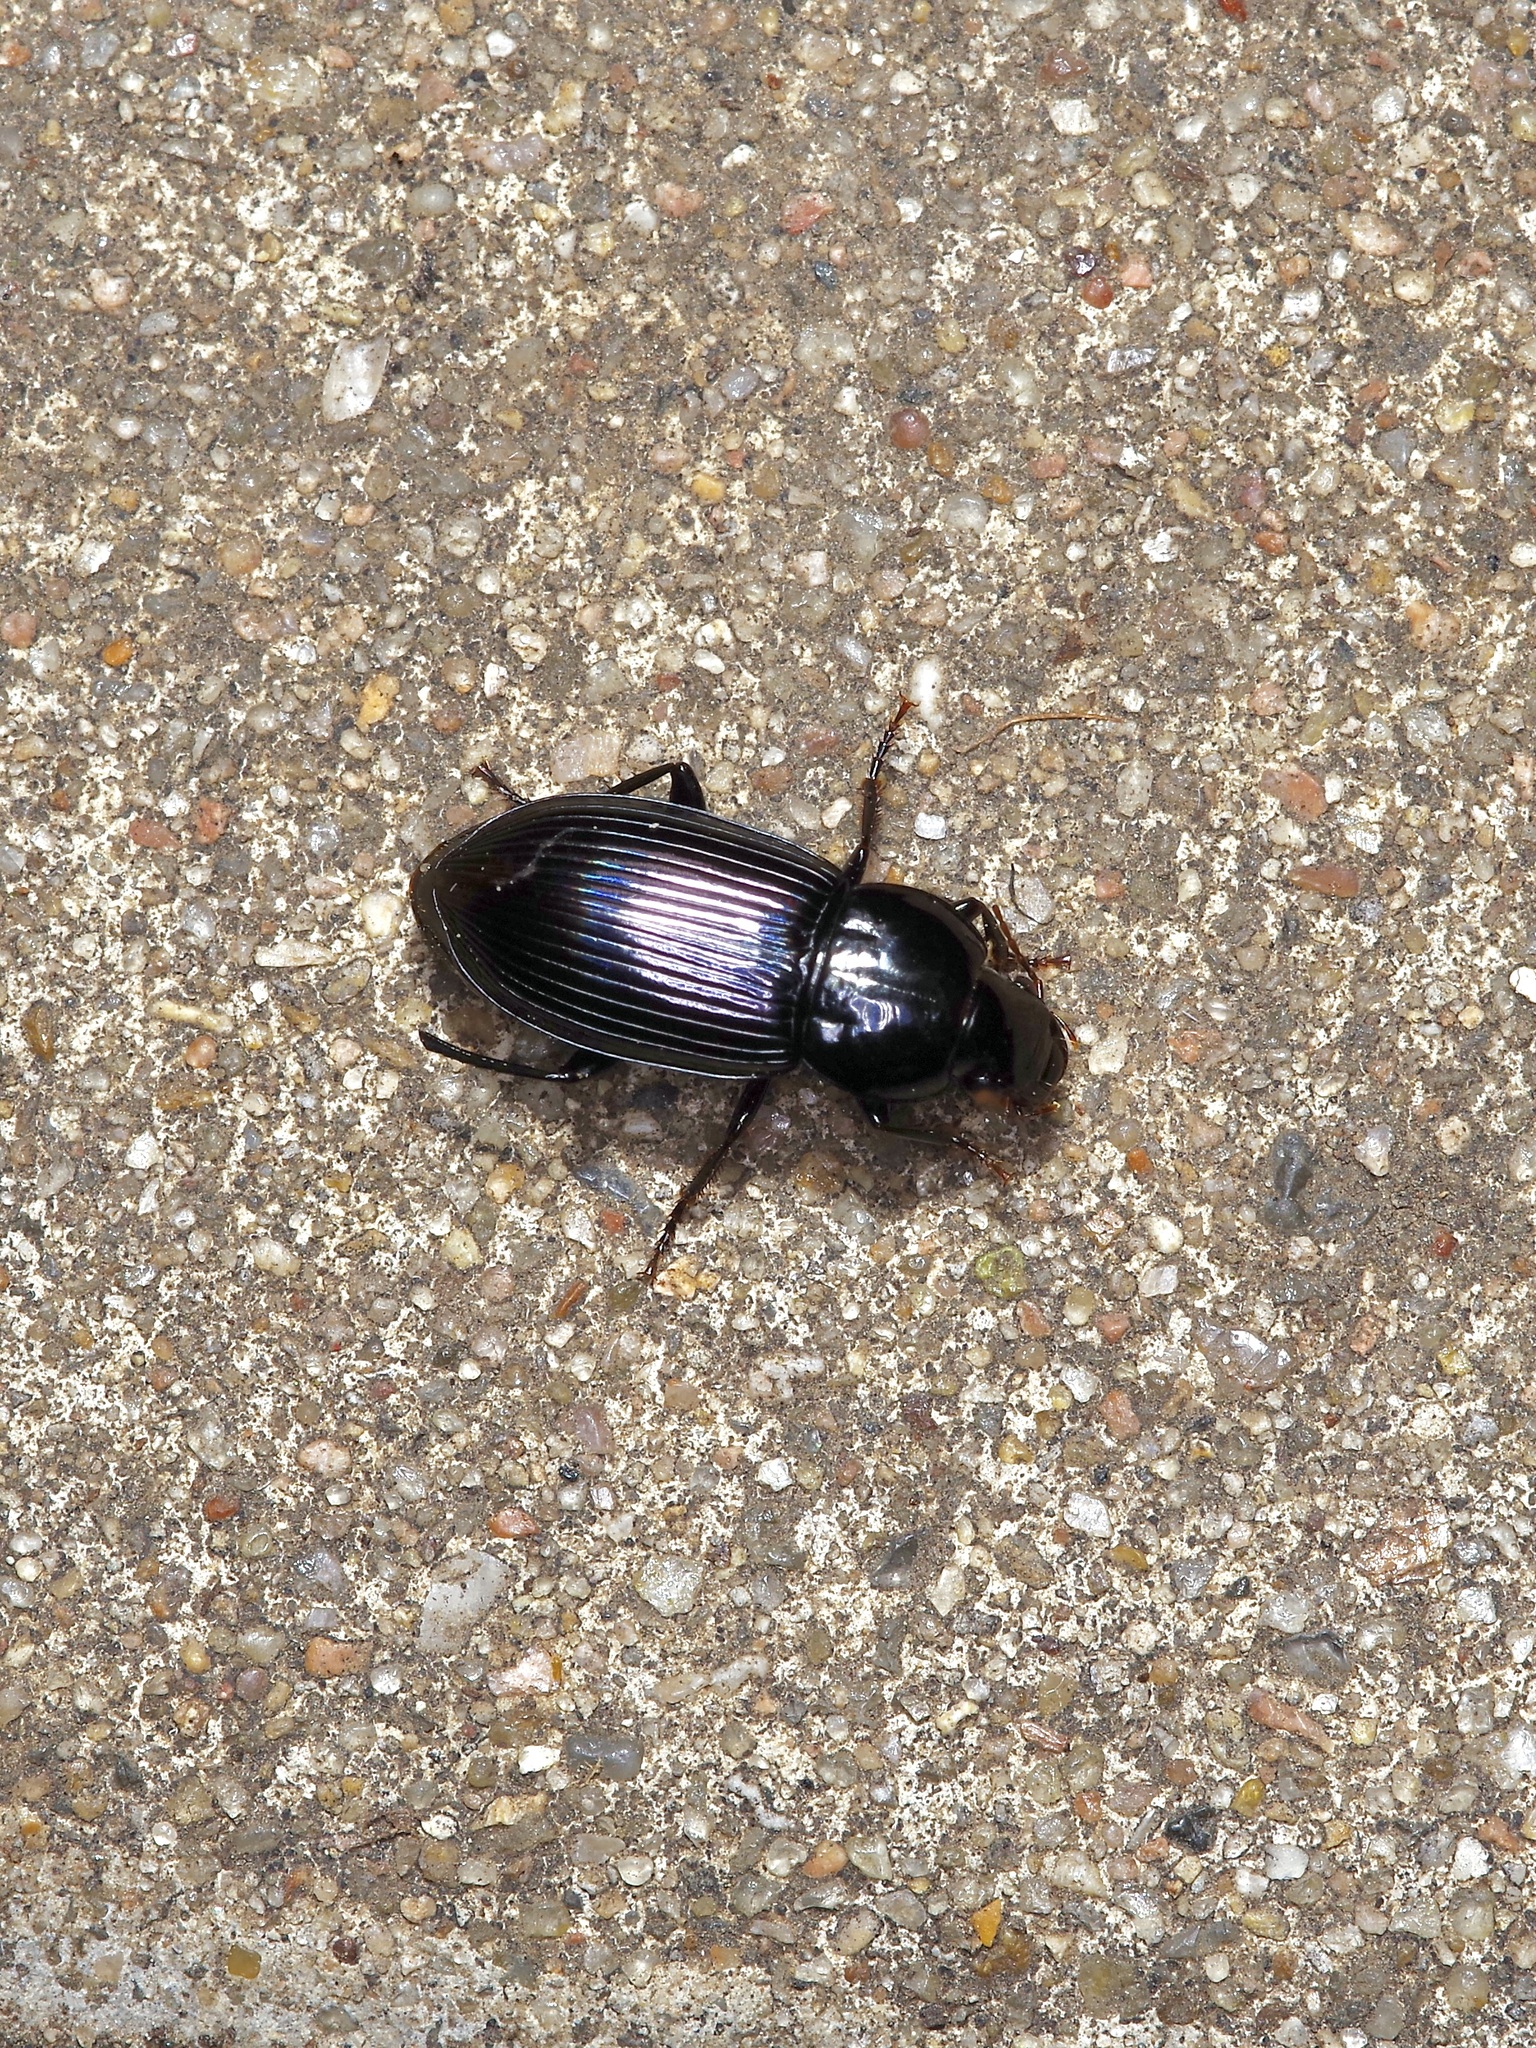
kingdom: Animalia
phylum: Arthropoda
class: Insecta
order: Coleoptera
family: Carabidae
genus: Aztecarpalus
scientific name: Aztecarpalus schaefferi
